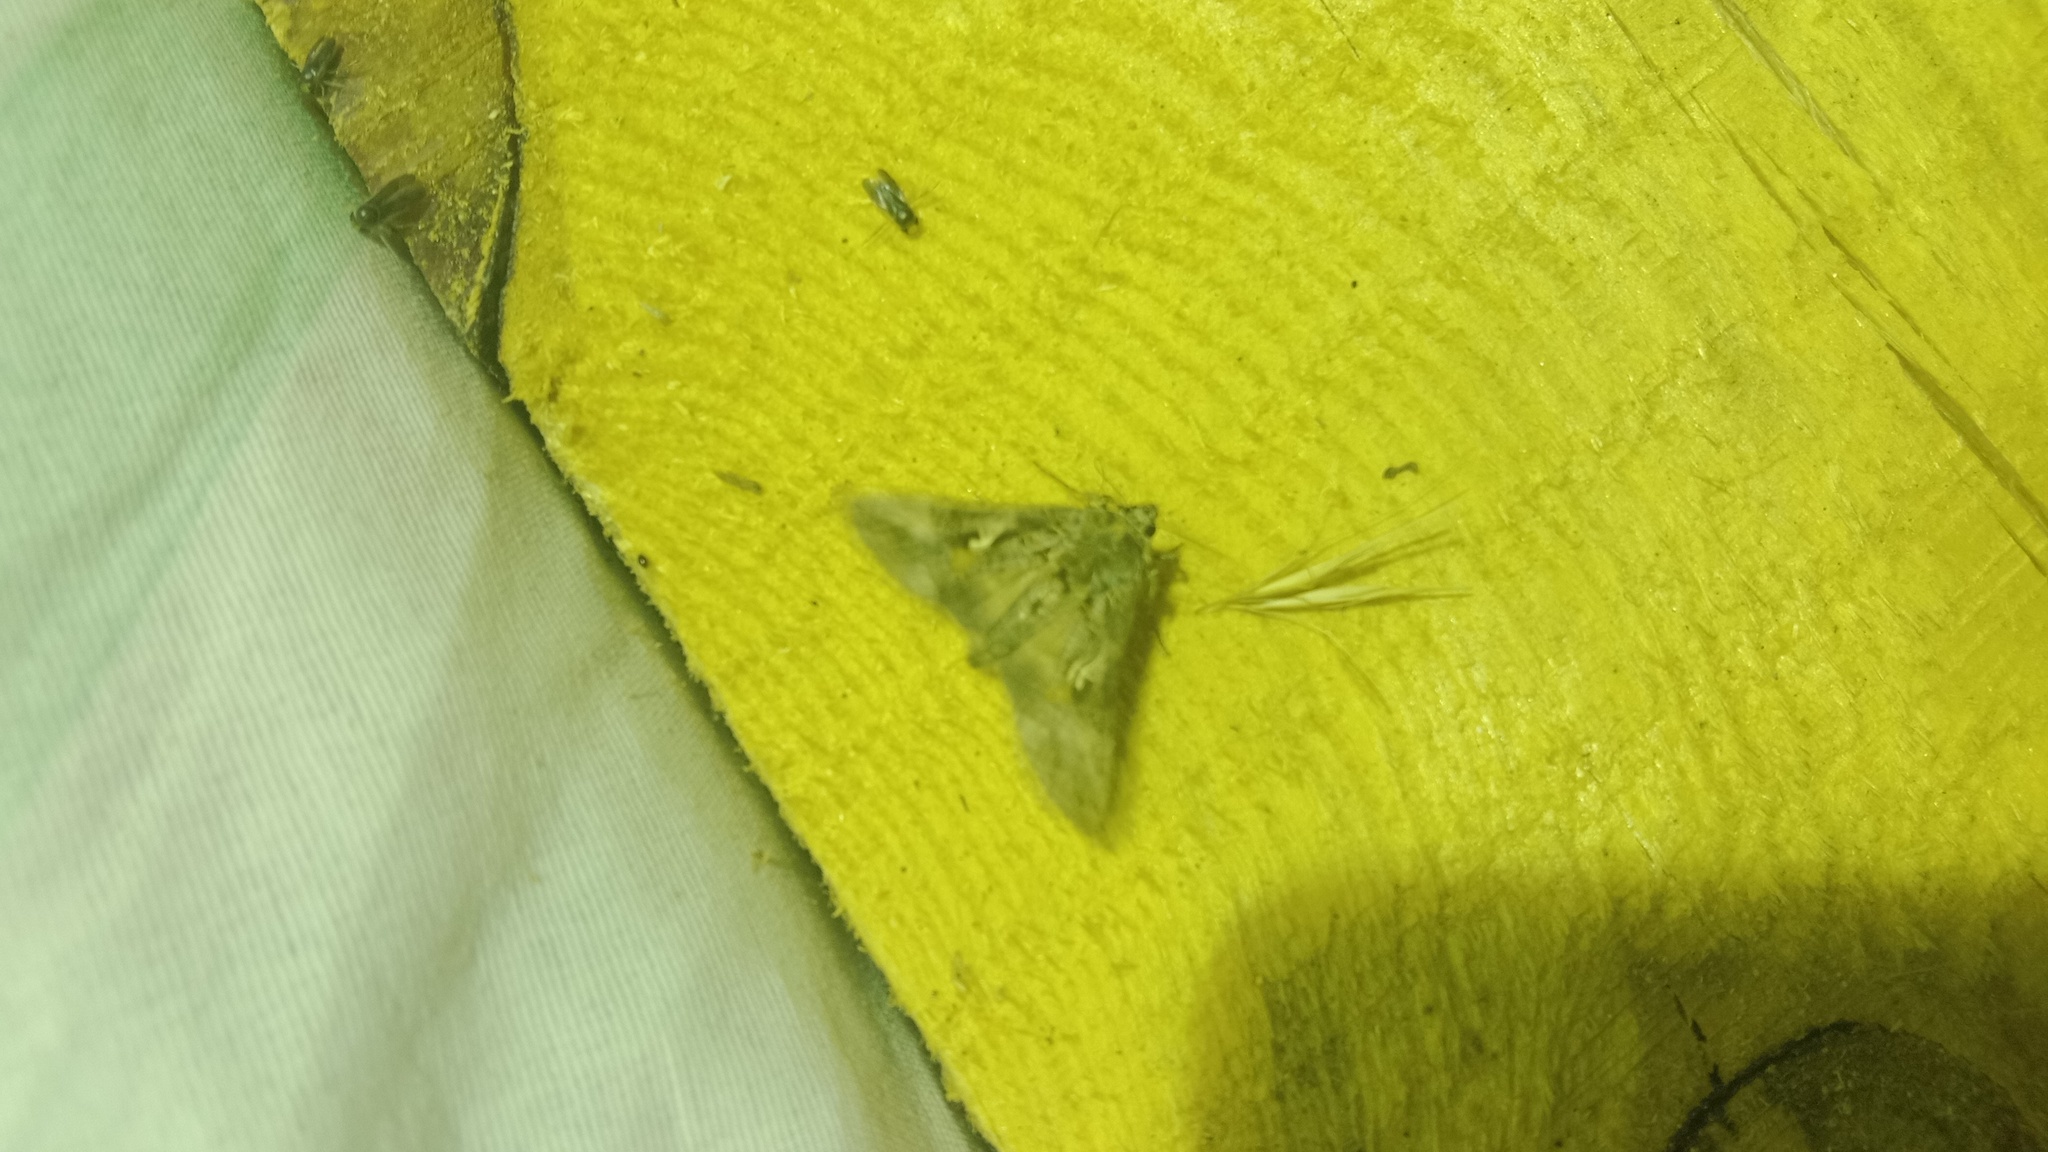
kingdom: Animalia
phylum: Arthropoda
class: Insecta
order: Lepidoptera
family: Noctuidae
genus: Autographa
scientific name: Autographa gamma
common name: Silver y
